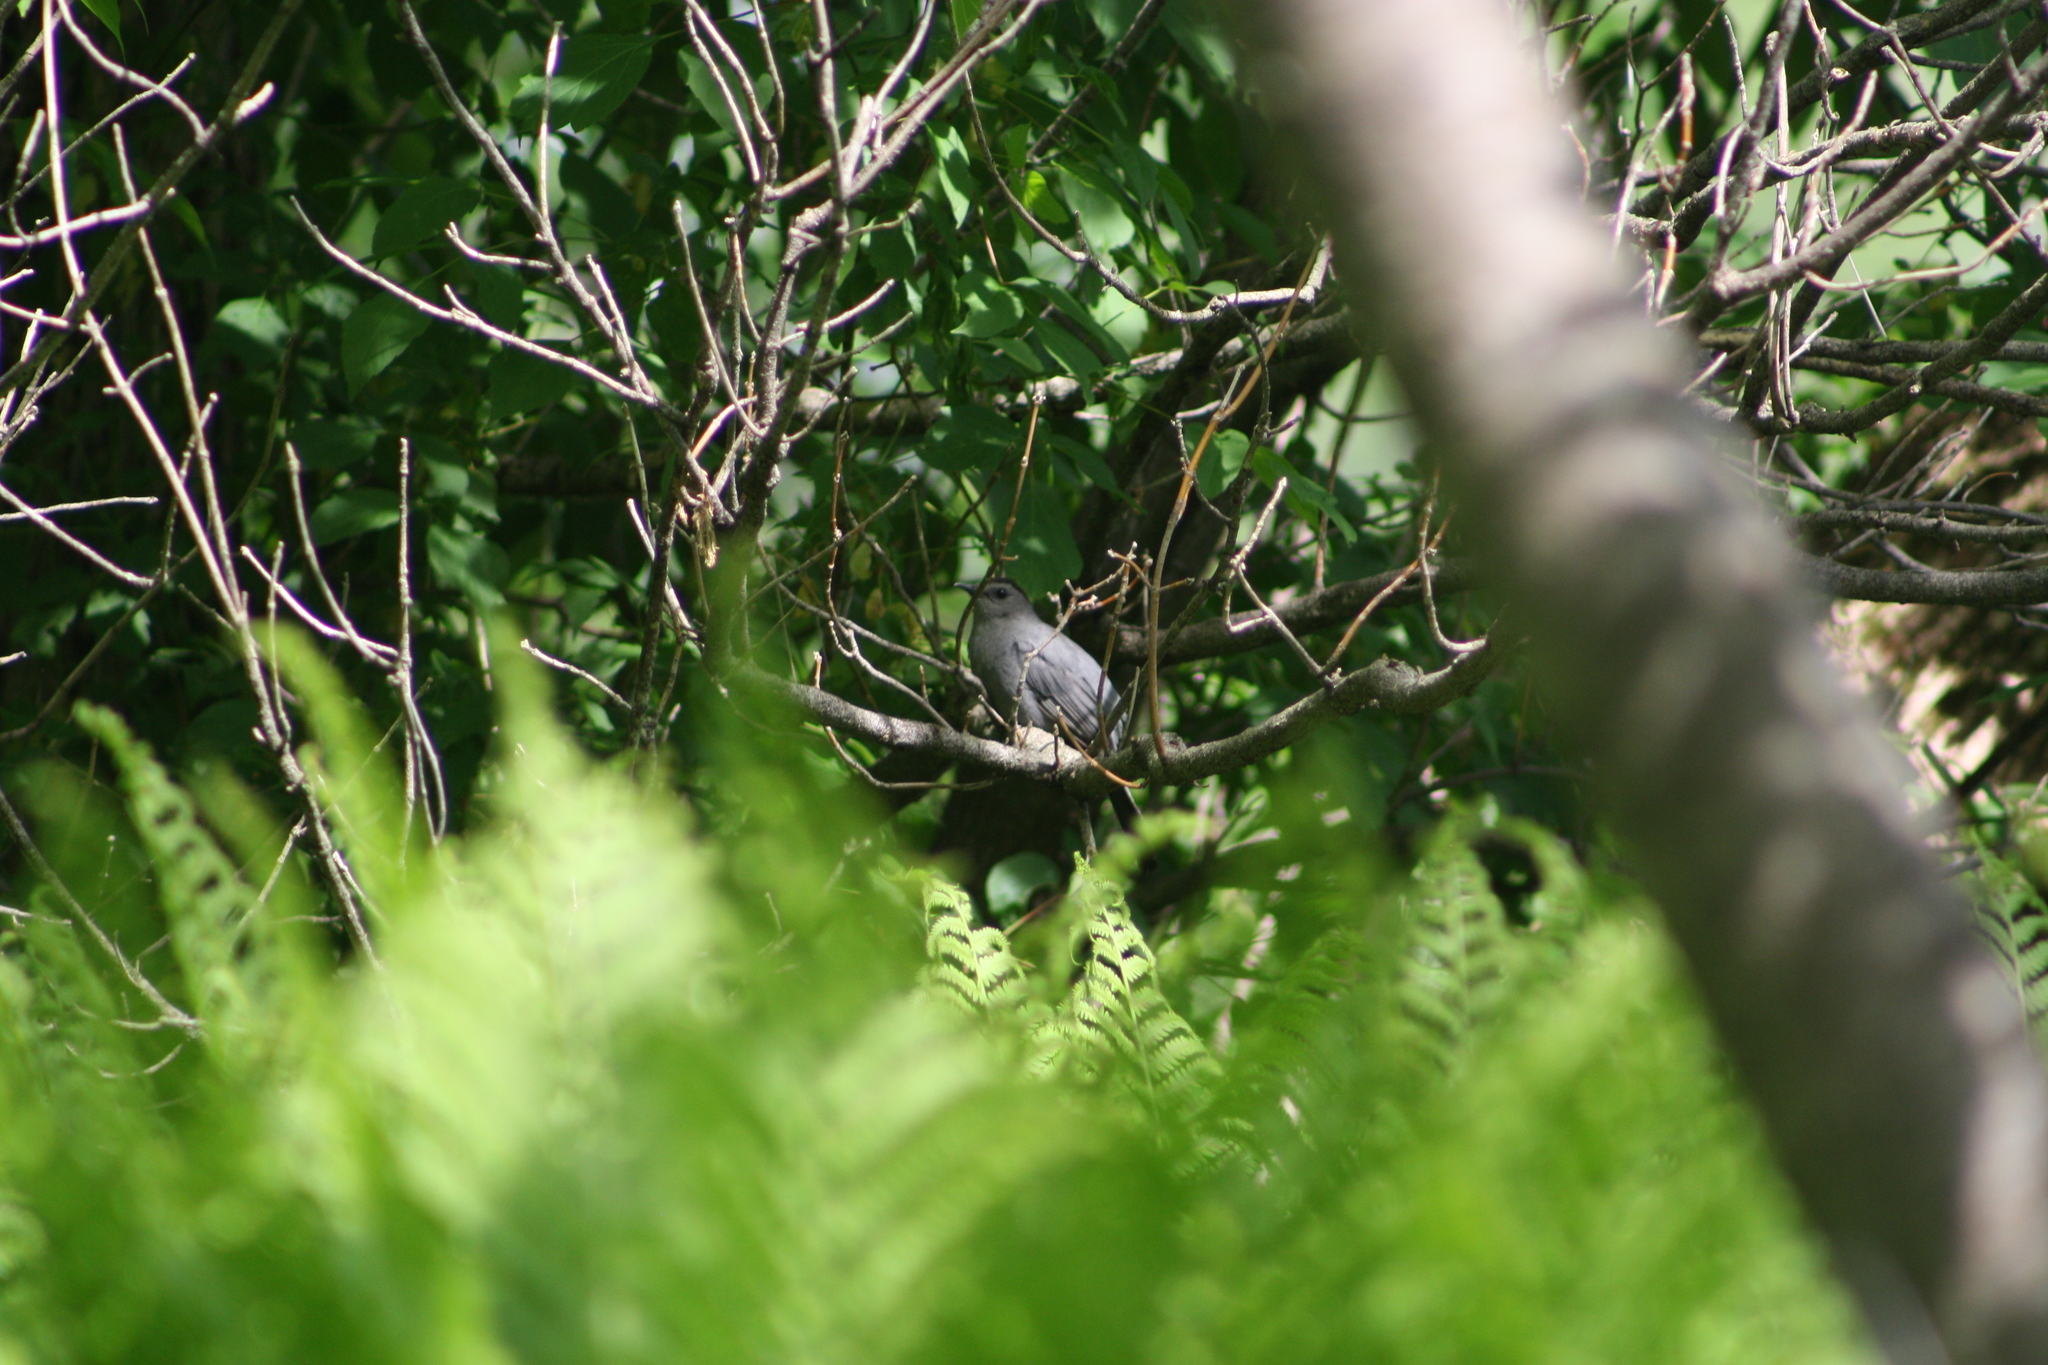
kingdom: Animalia
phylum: Chordata
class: Aves
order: Passeriformes
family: Mimidae
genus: Dumetella
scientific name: Dumetella carolinensis
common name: Gray catbird
